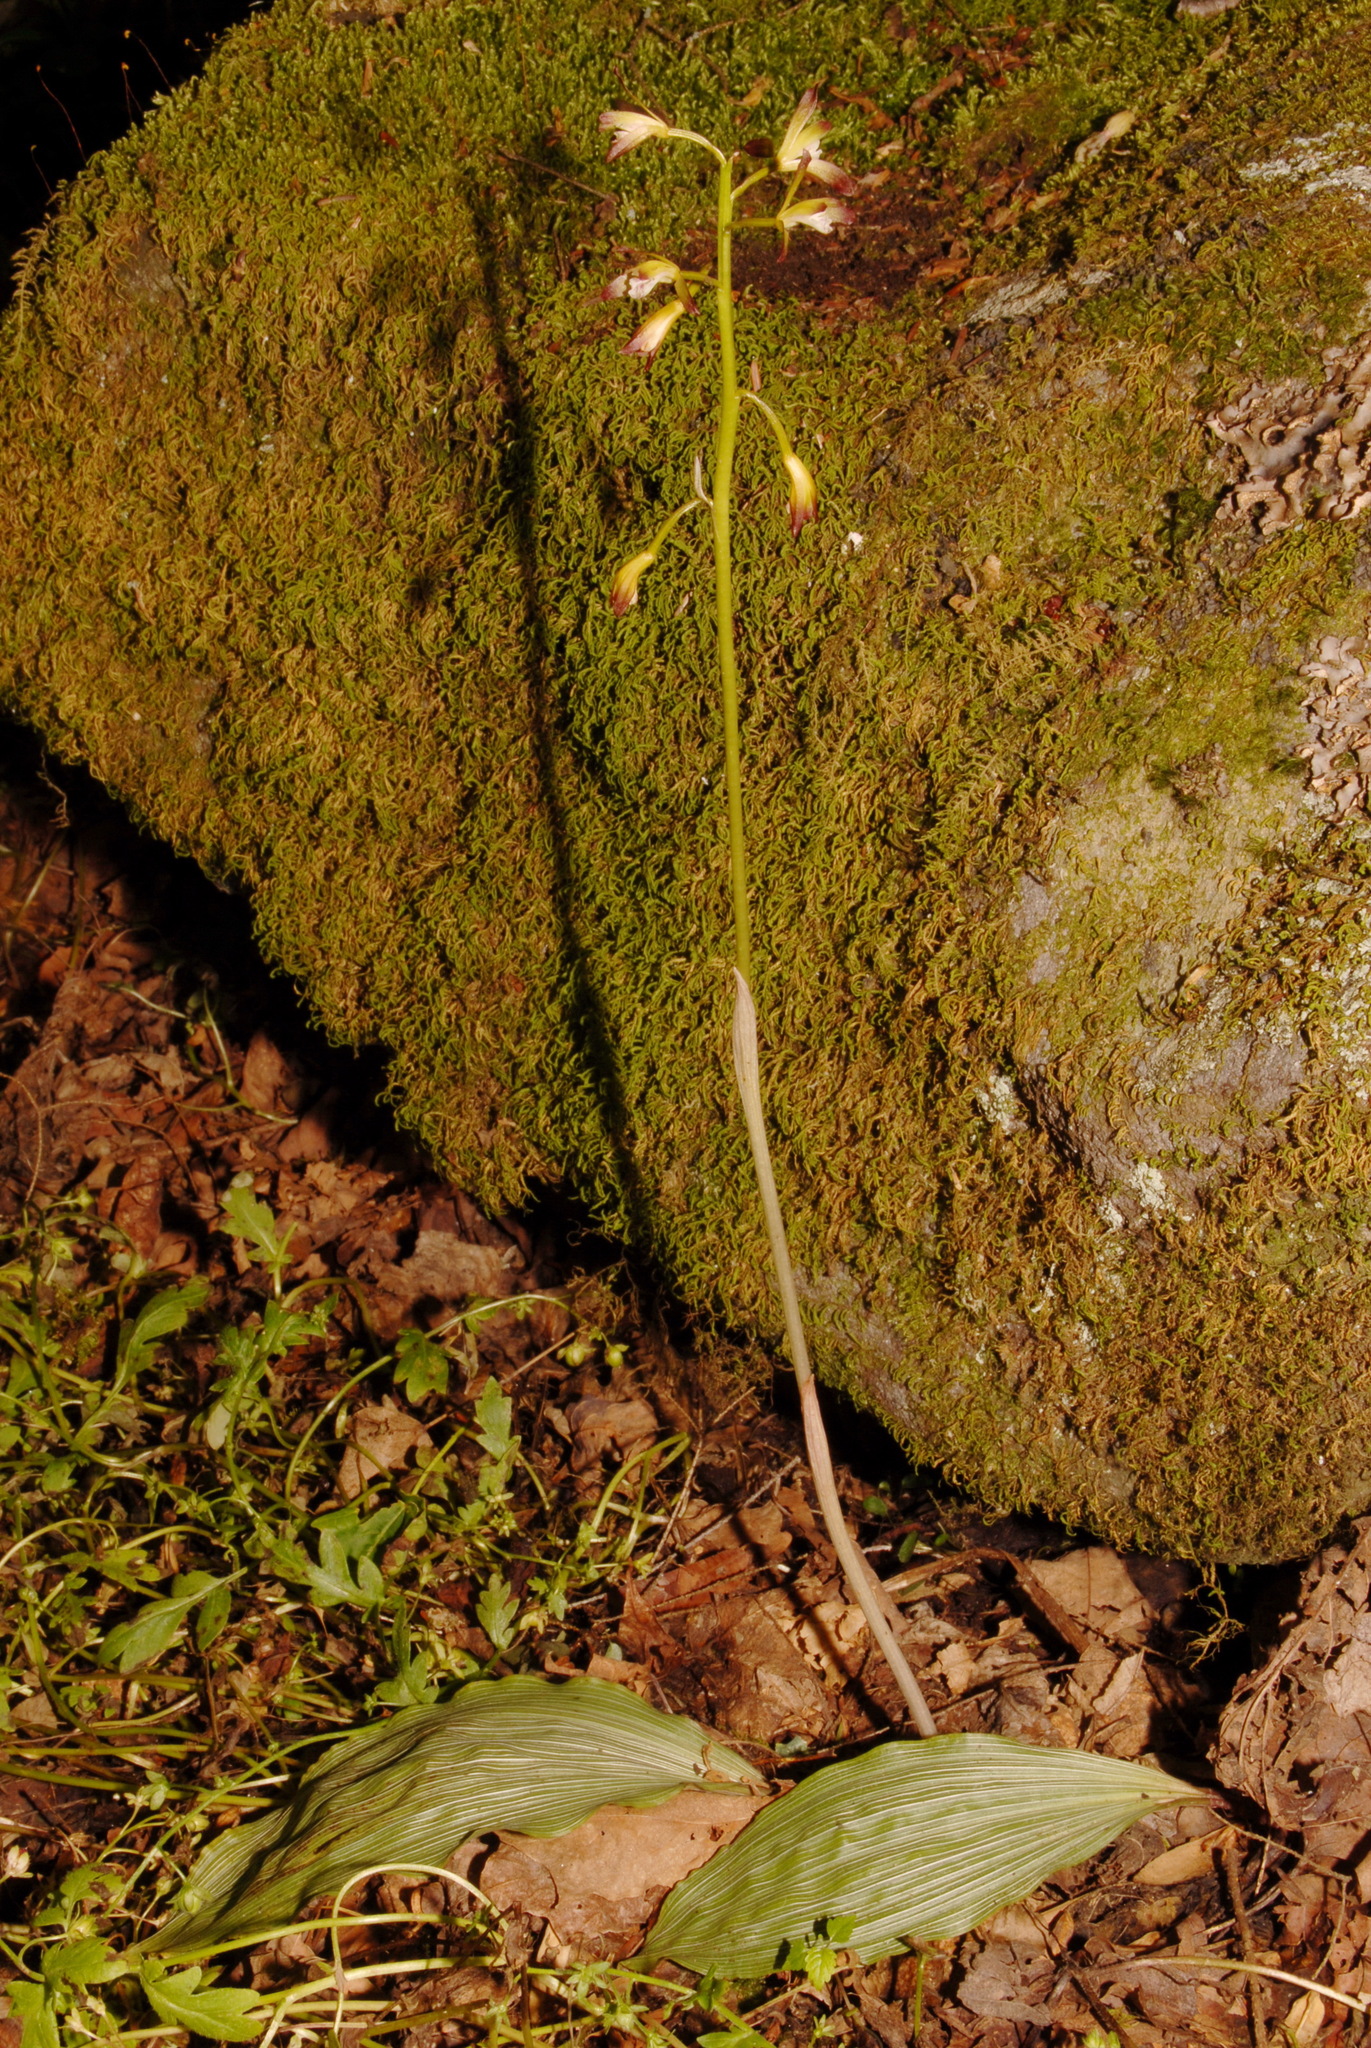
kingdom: Plantae
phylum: Tracheophyta
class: Liliopsida
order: Asparagales
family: Orchidaceae
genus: Aplectrum
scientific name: Aplectrum hyemale
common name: Adam-and-eve
